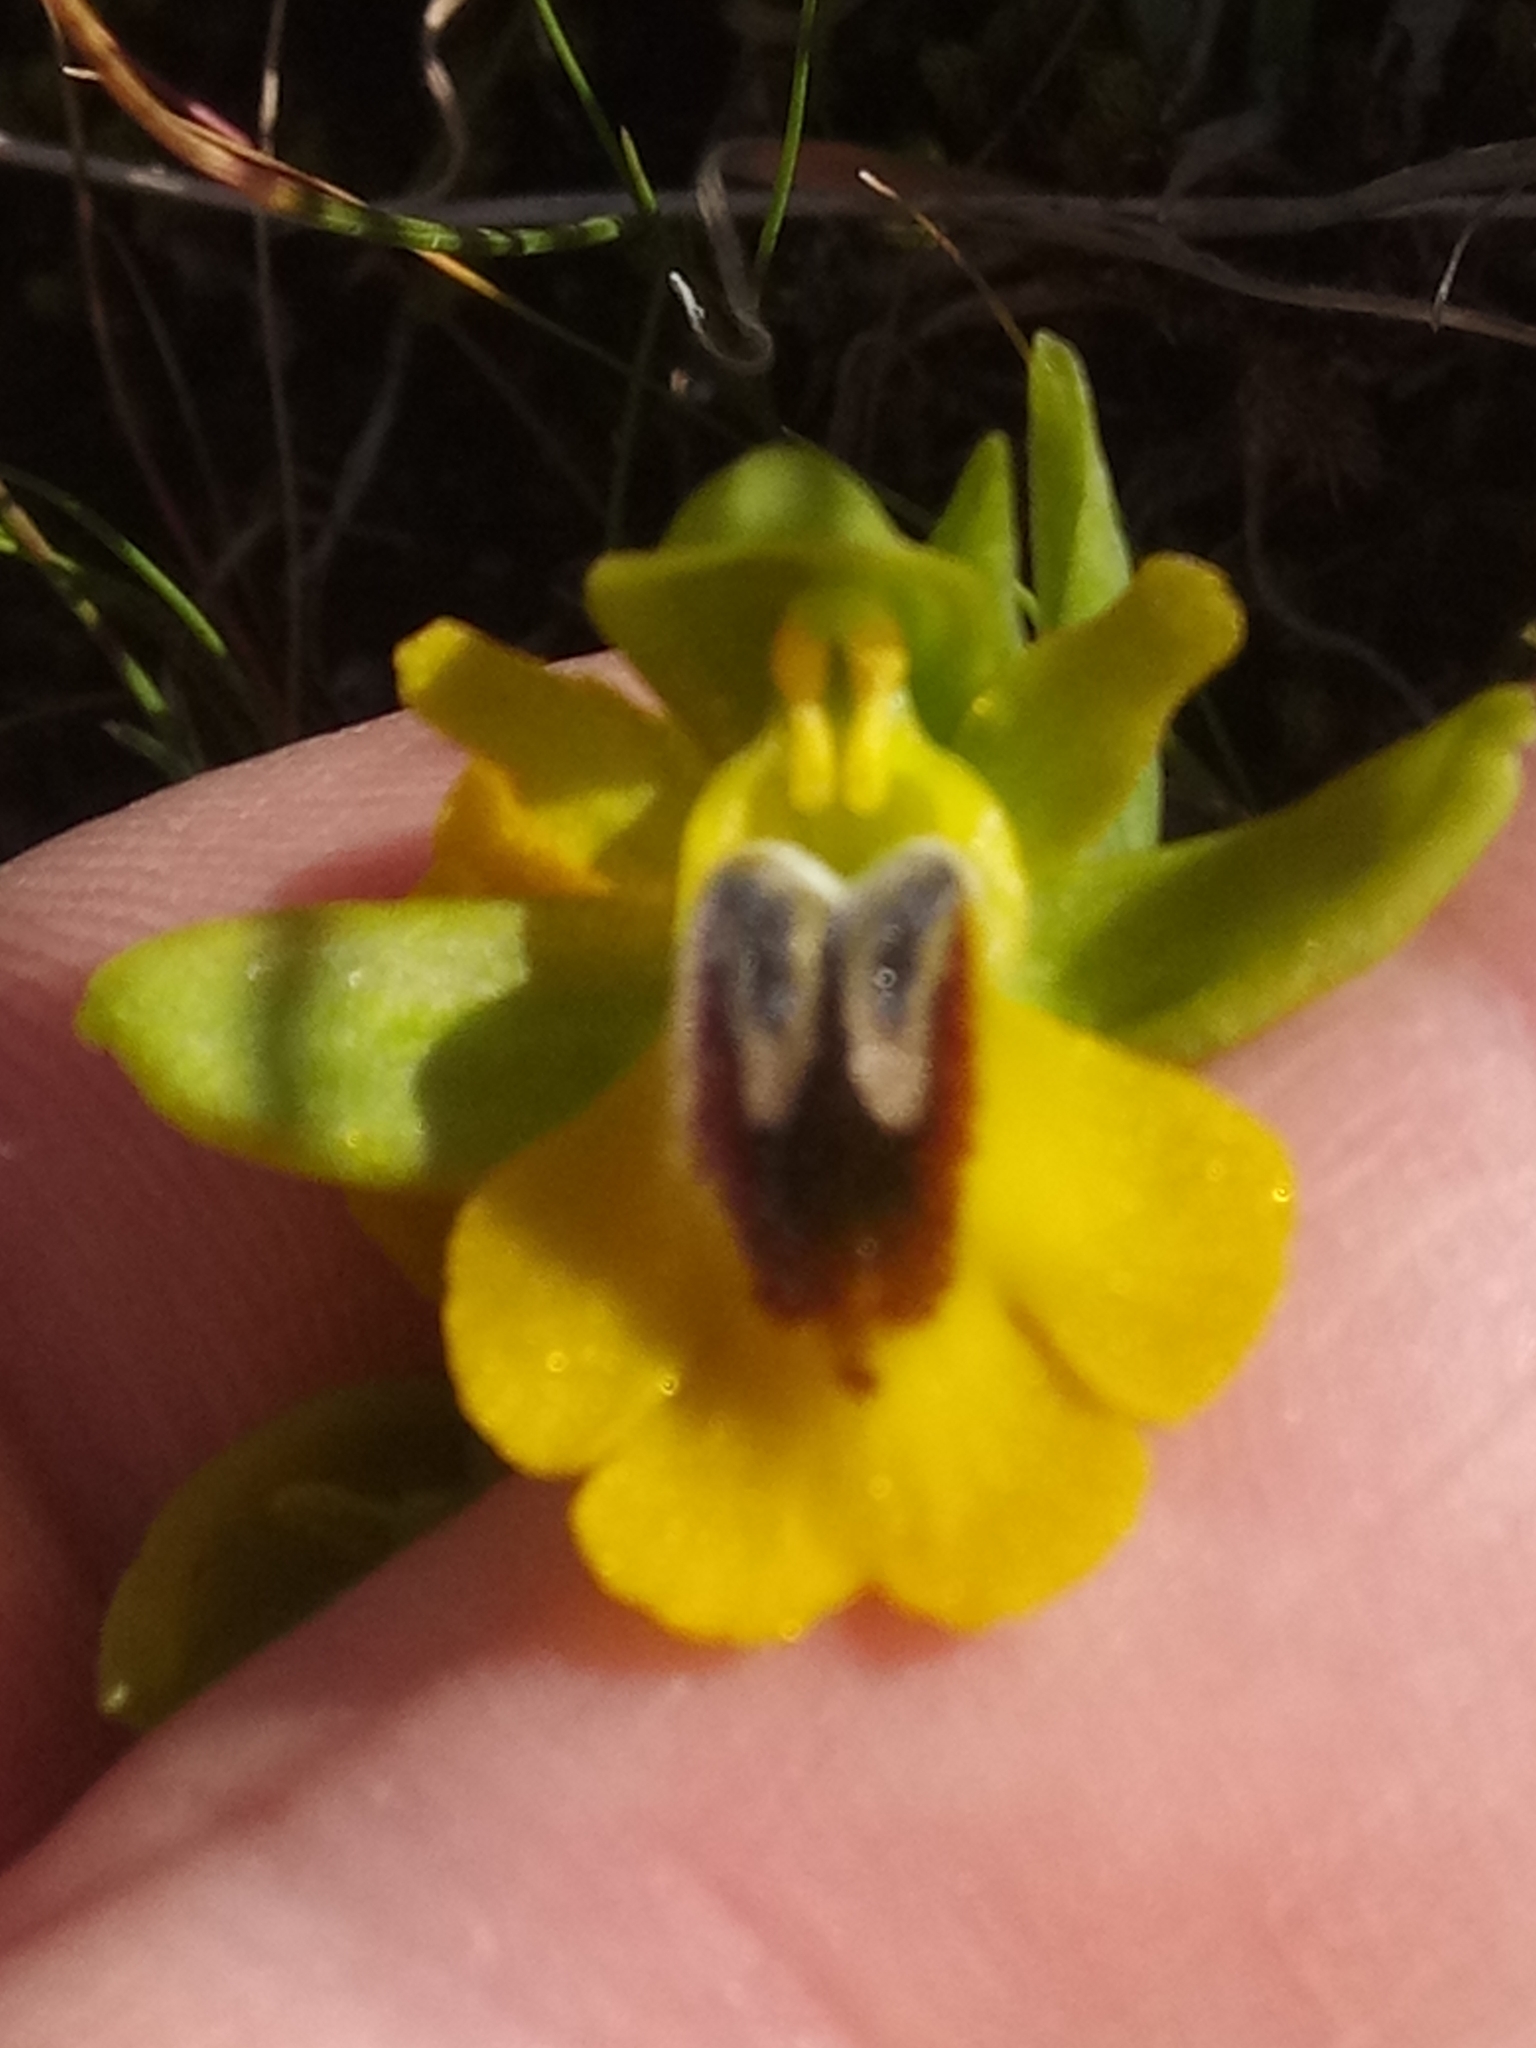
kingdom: Plantae
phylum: Tracheophyta
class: Liliopsida
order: Asparagales
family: Orchidaceae
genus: Ophrys
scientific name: Ophrys lutea
